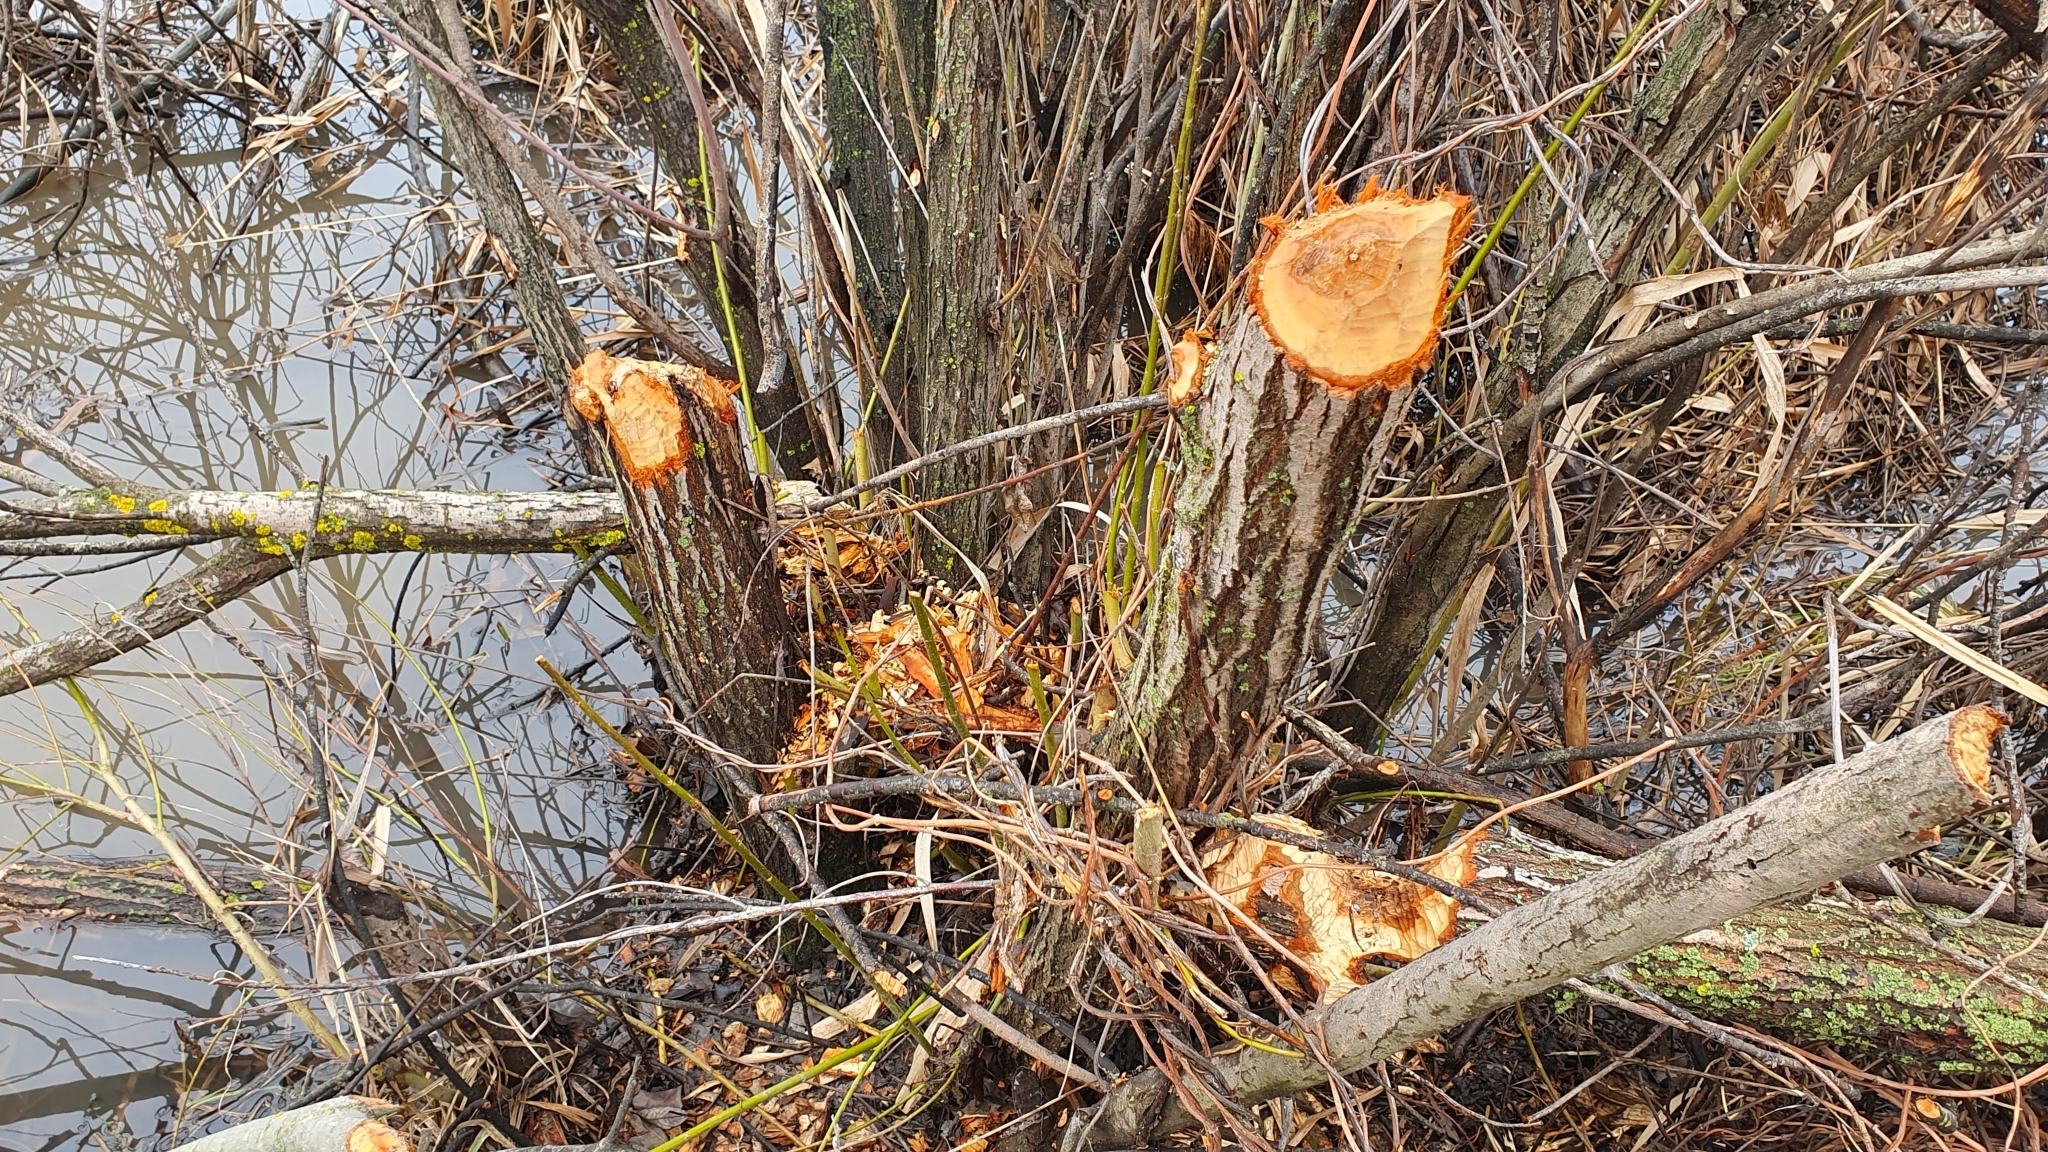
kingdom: Animalia
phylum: Chordata
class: Mammalia
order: Rodentia
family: Castoridae
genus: Castor
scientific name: Castor fiber
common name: Eurasian beaver
